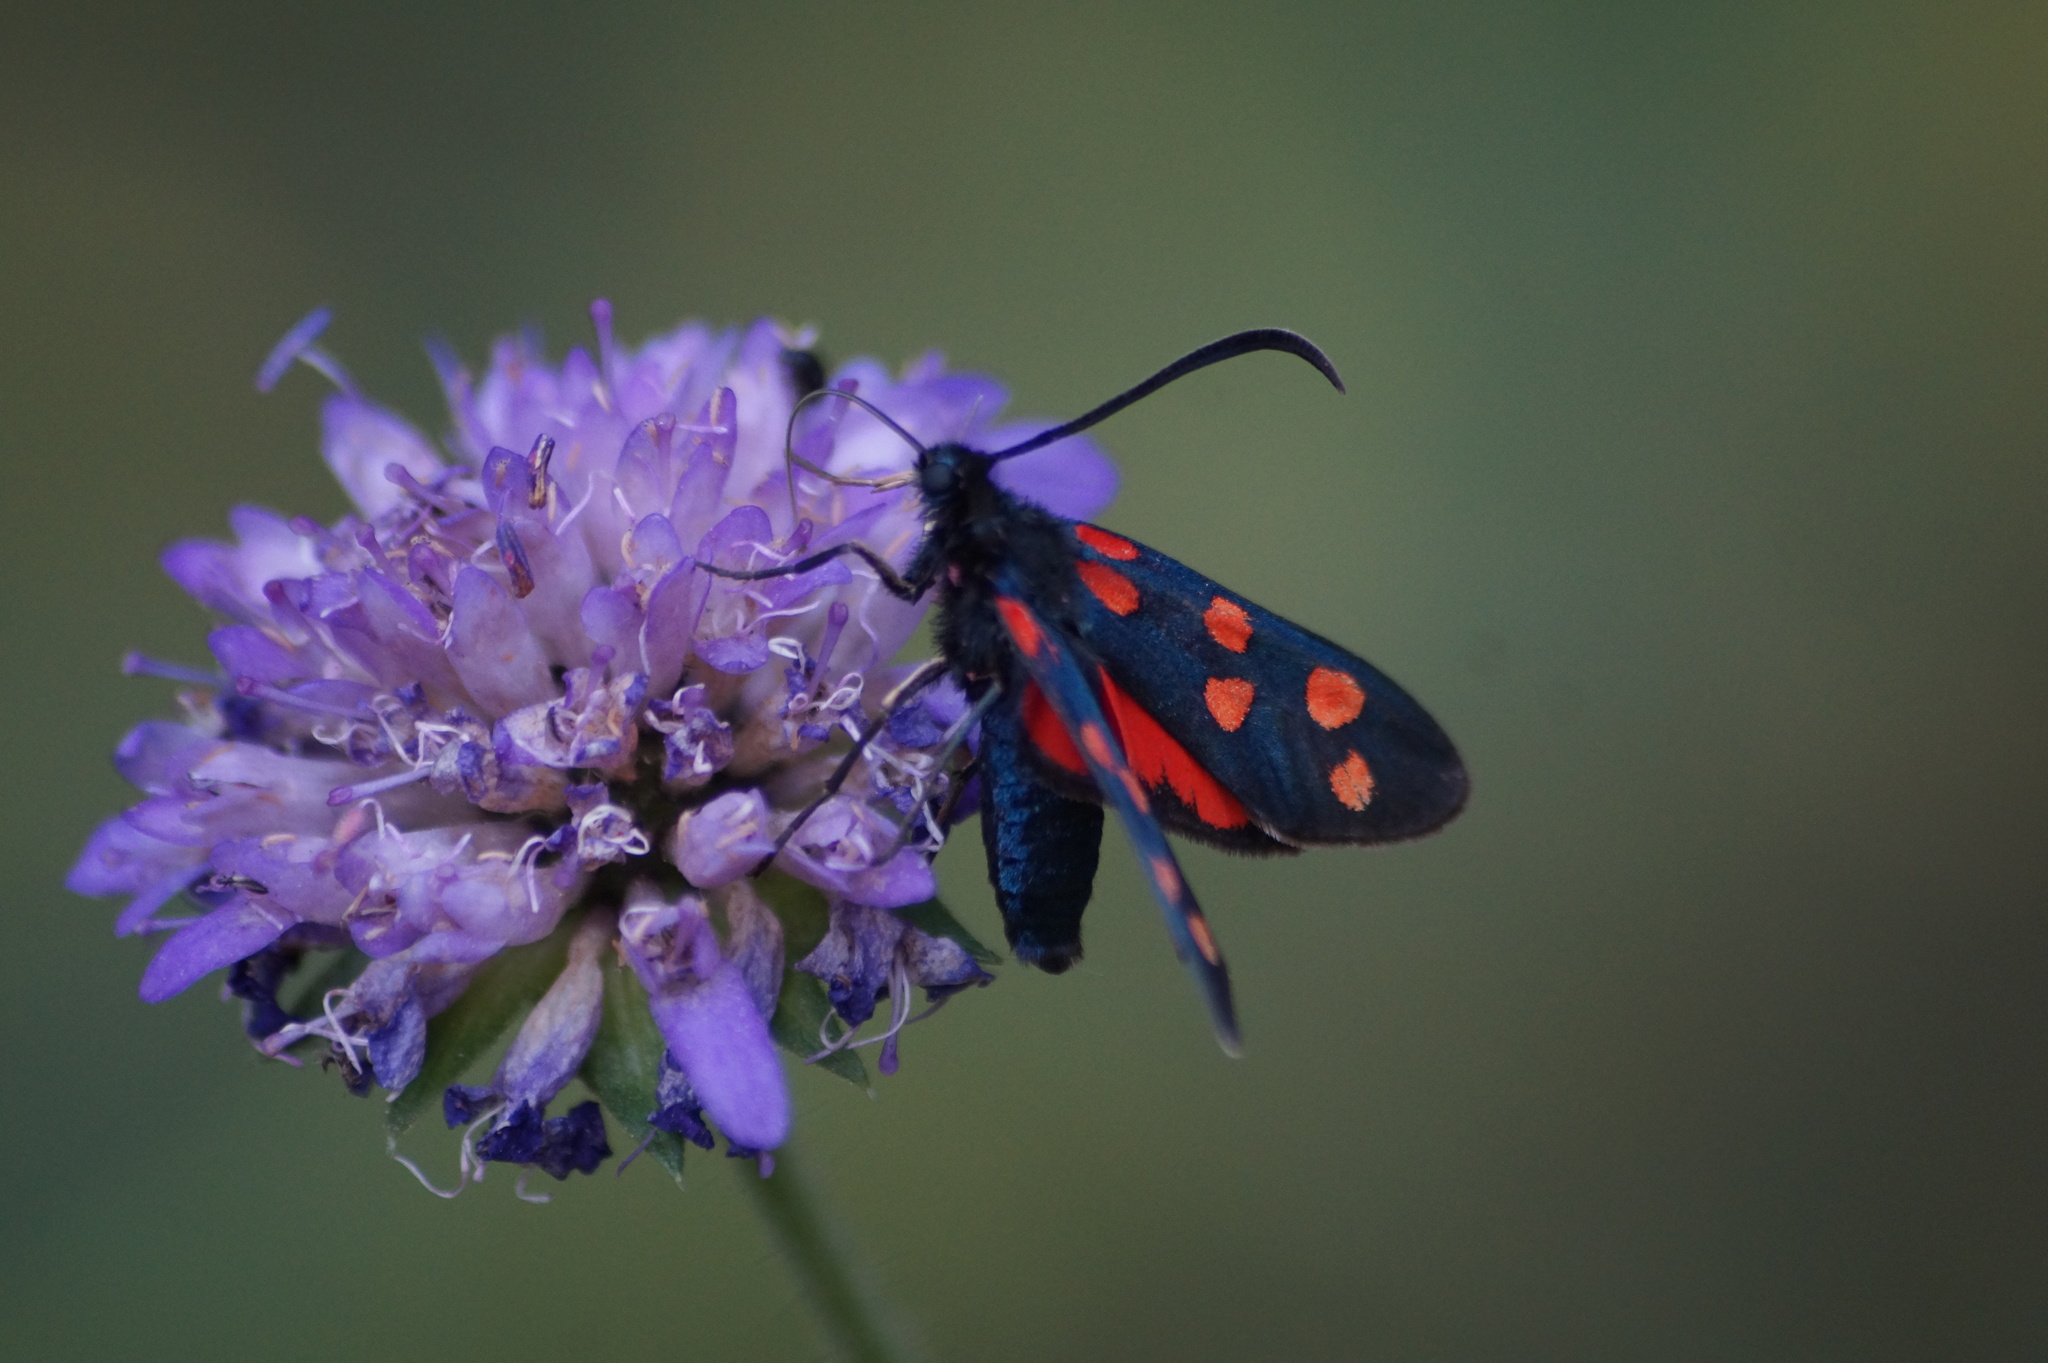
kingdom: Animalia
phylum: Arthropoda
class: Insecta
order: Lepidoptera
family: Zygaenidae
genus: Zygaena
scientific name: Zygaena transalpina
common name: Southern six spot burnet
